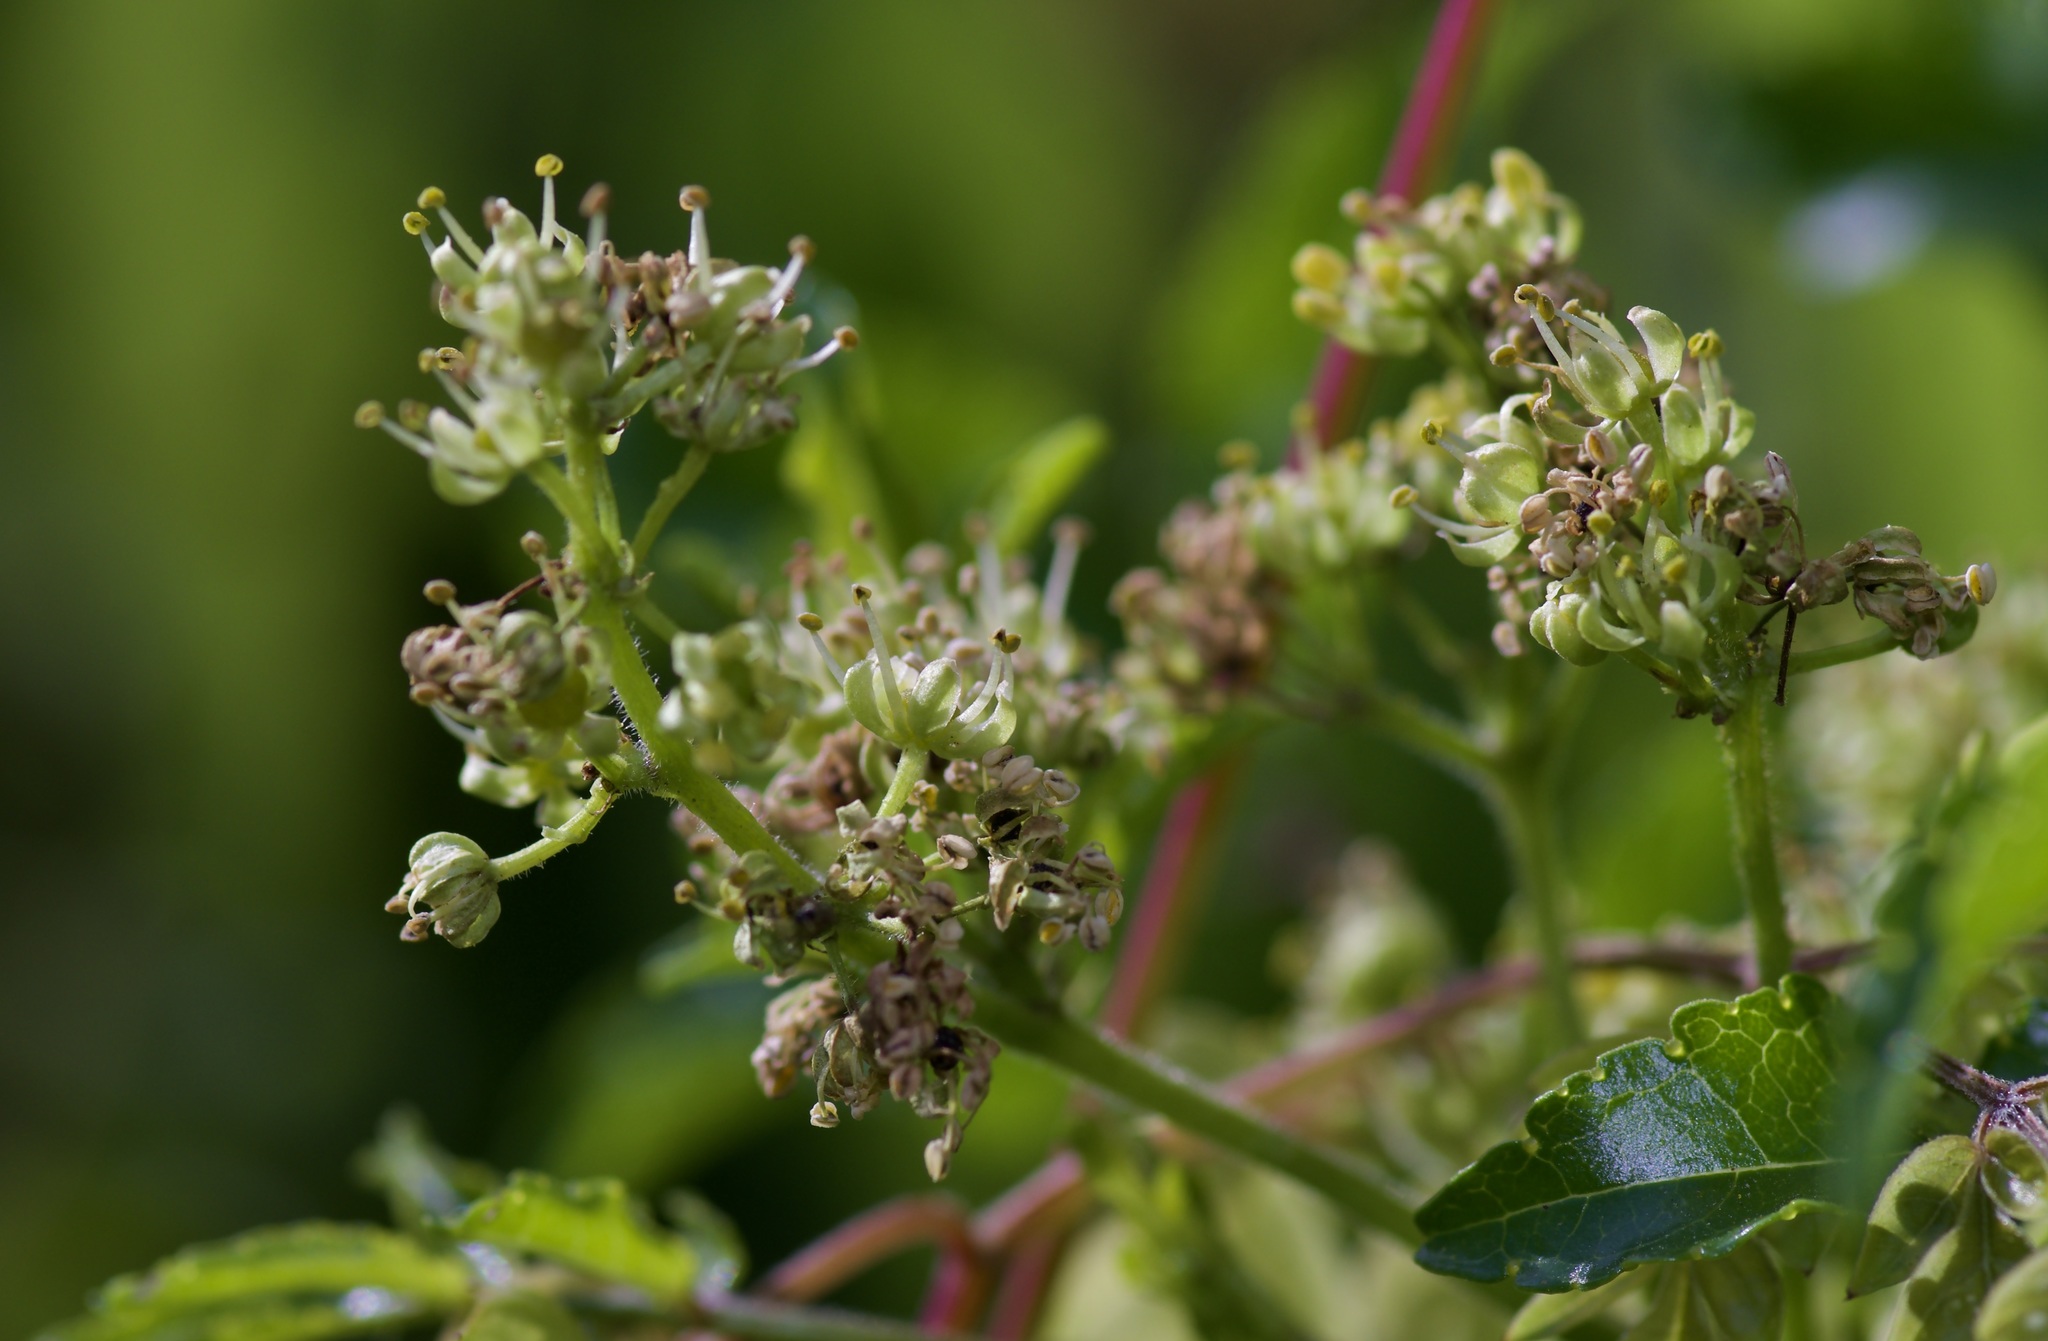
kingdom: Plantae
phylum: Tracheophyta
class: Magnoliopsida
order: Sapindales
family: Rutaceae
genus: Zanthoxylum
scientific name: Zanthoxylum clava-herculis
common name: Hercules'-club
